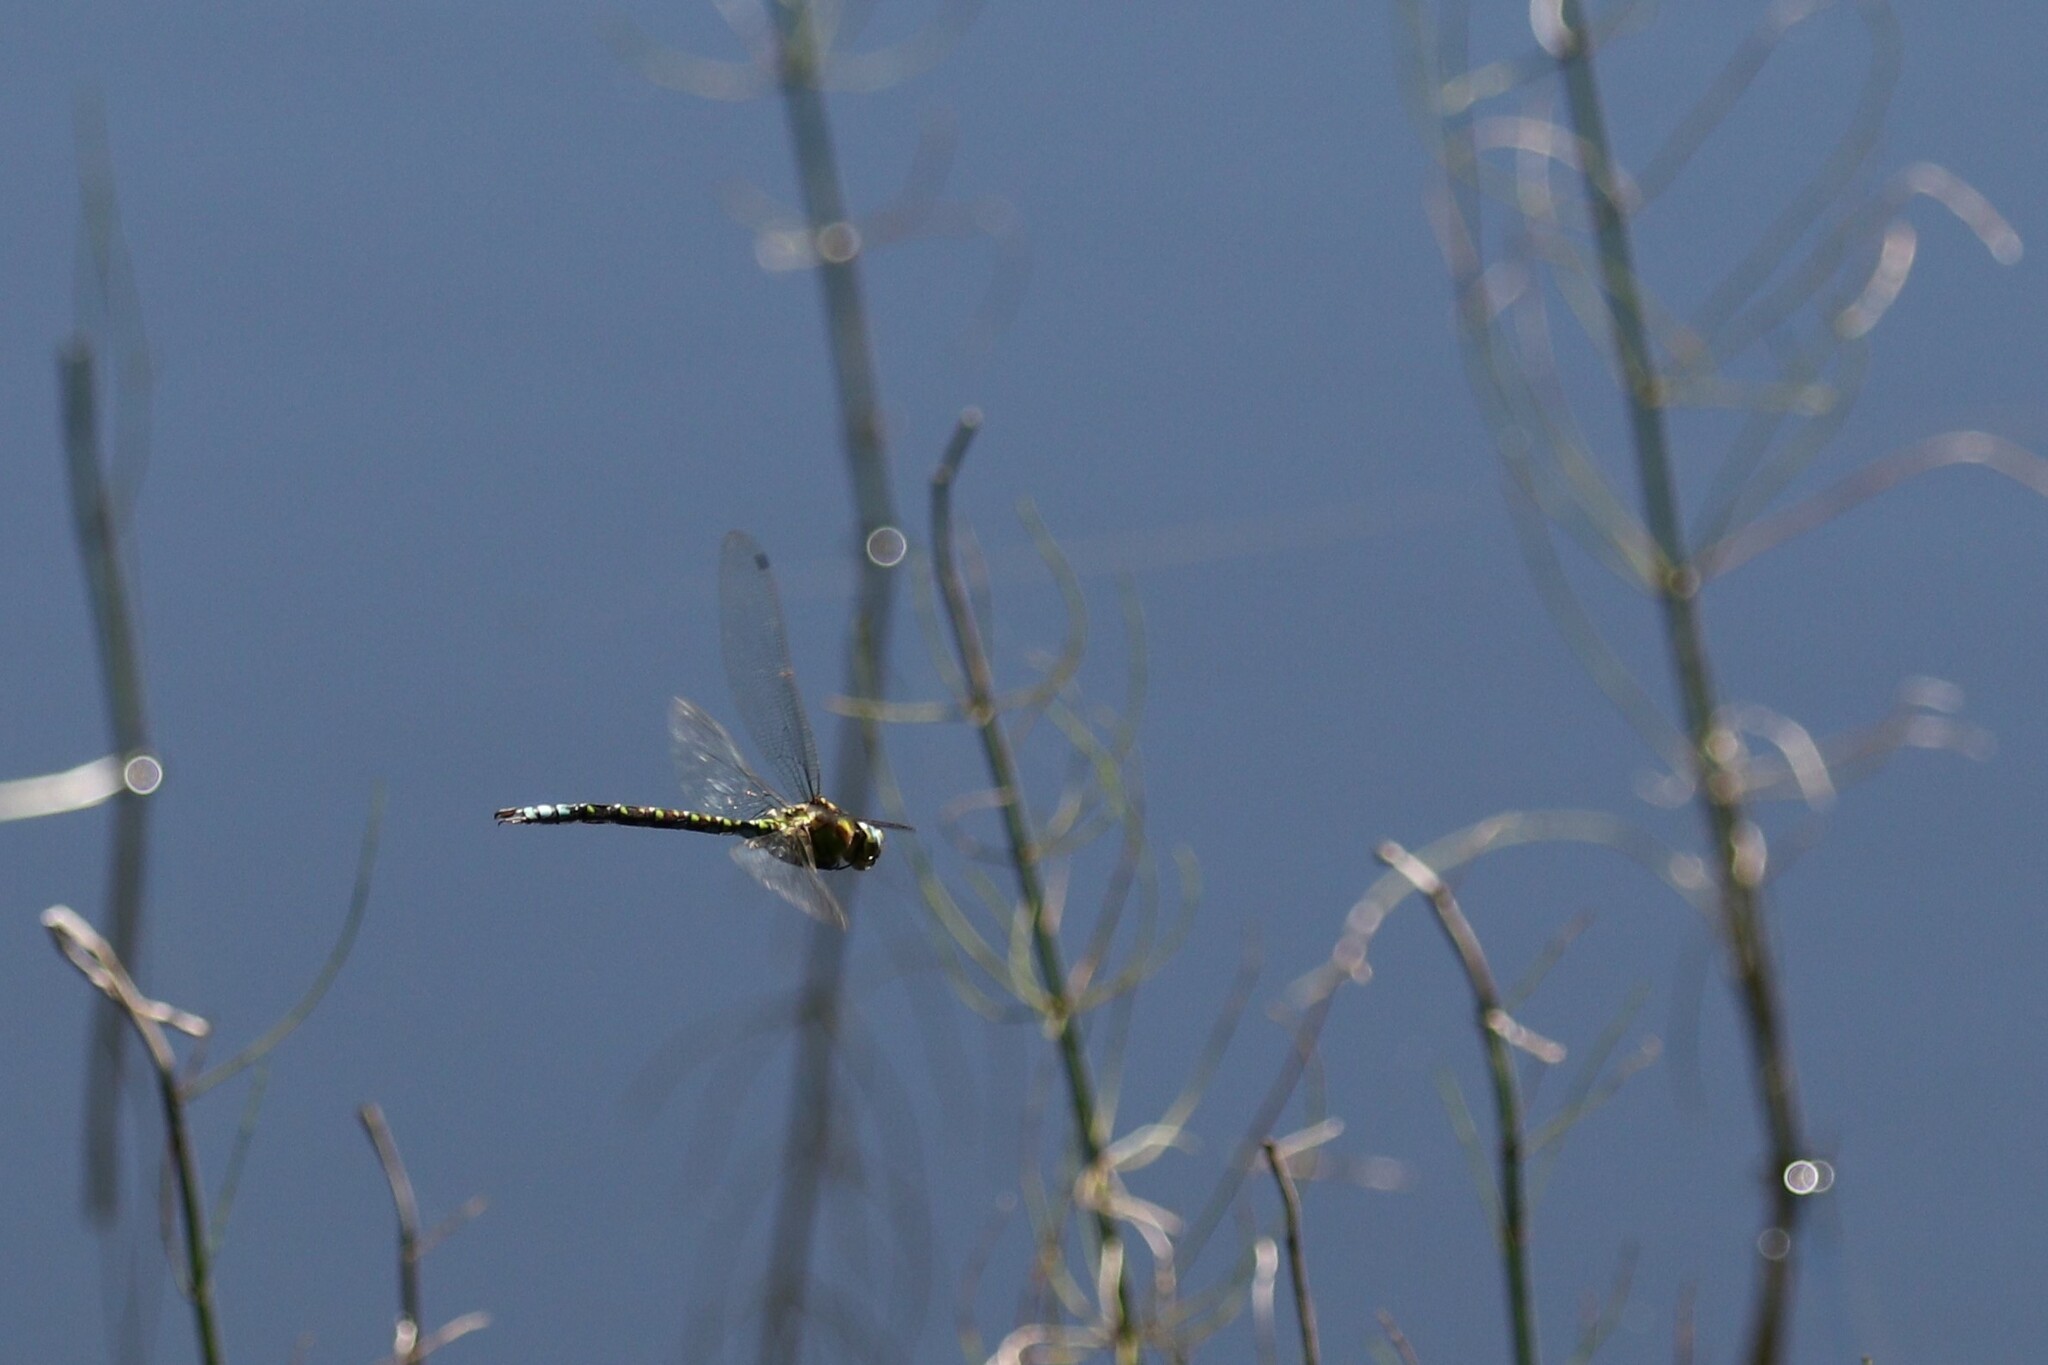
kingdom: Animalia
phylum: Arthropoda
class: Insecta
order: Odonata
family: Aeshnidae
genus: Aeshna
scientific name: Aeshna cyanea
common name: Southern hawker
